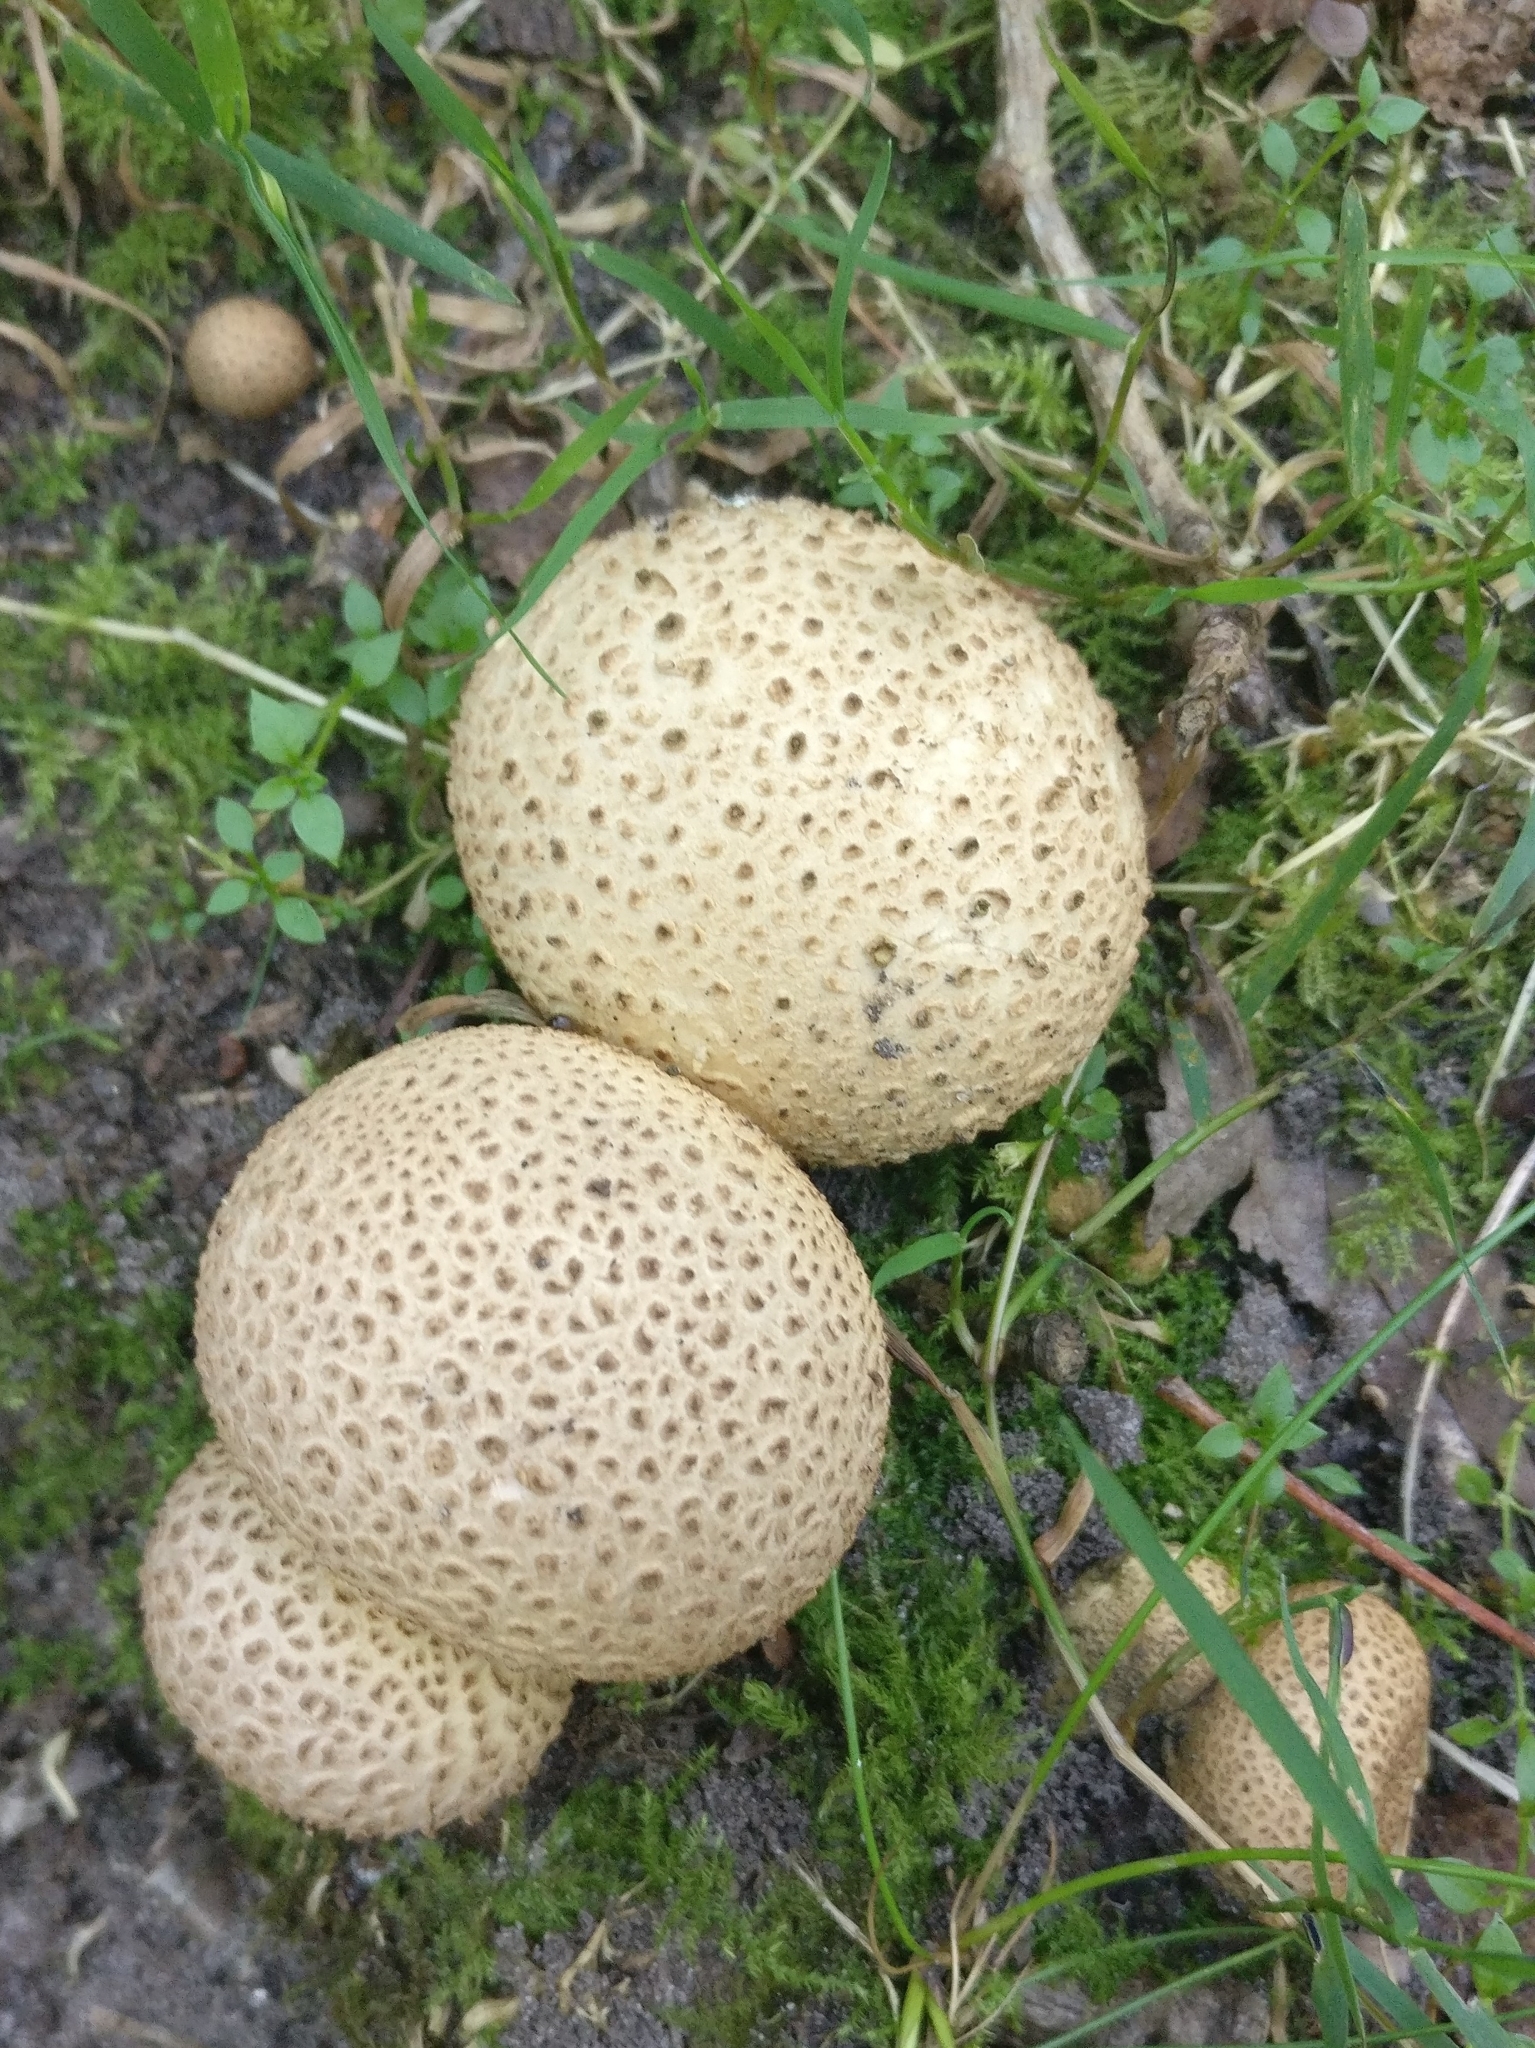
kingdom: Fungi
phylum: Basidiomycota
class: Agaricomycetes
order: Boletales
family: Sclerodermataceae
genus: Scleroderma
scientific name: Scleroderma citrinum
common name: Common earthball
